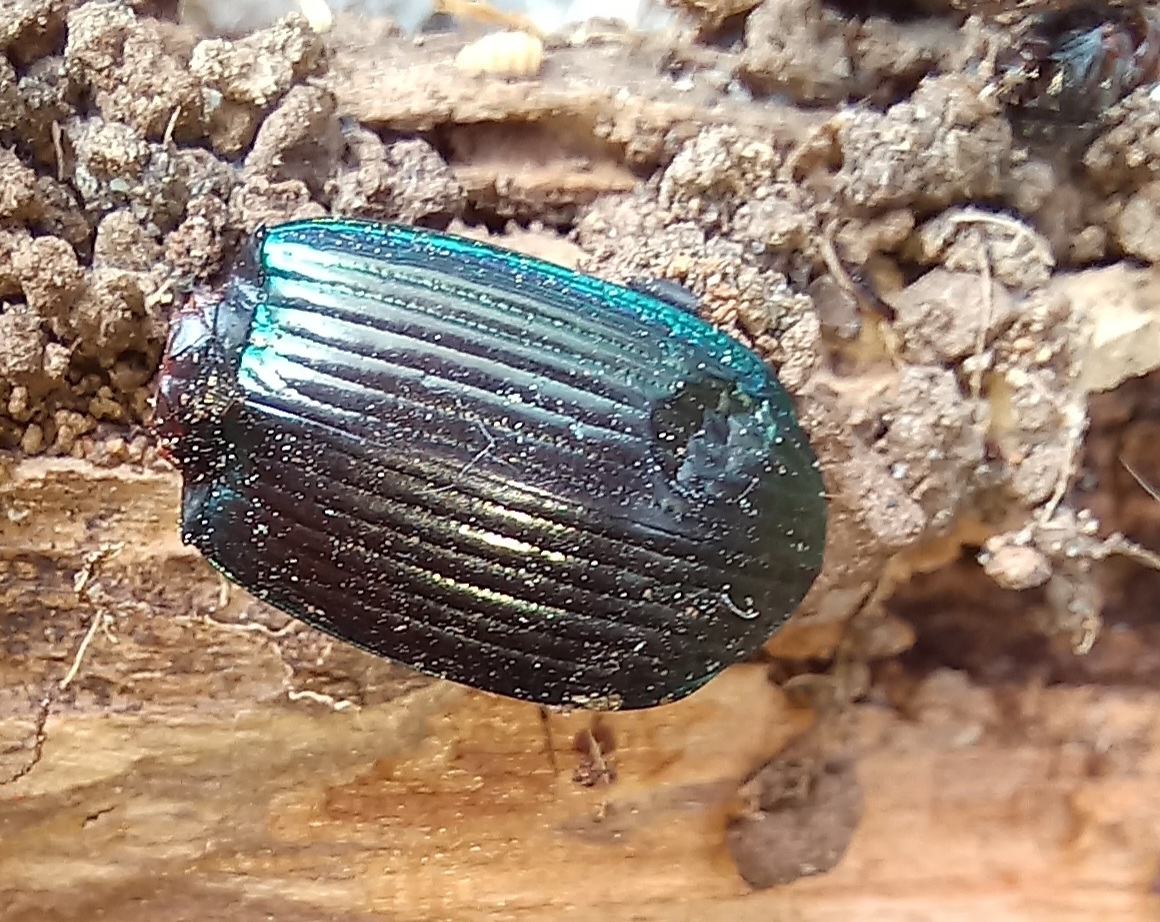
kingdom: Animalia
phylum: Arthropoda
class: Insecta
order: Coleoptera
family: Carabidae
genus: Megadromus
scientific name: Megadromus antarcticus
